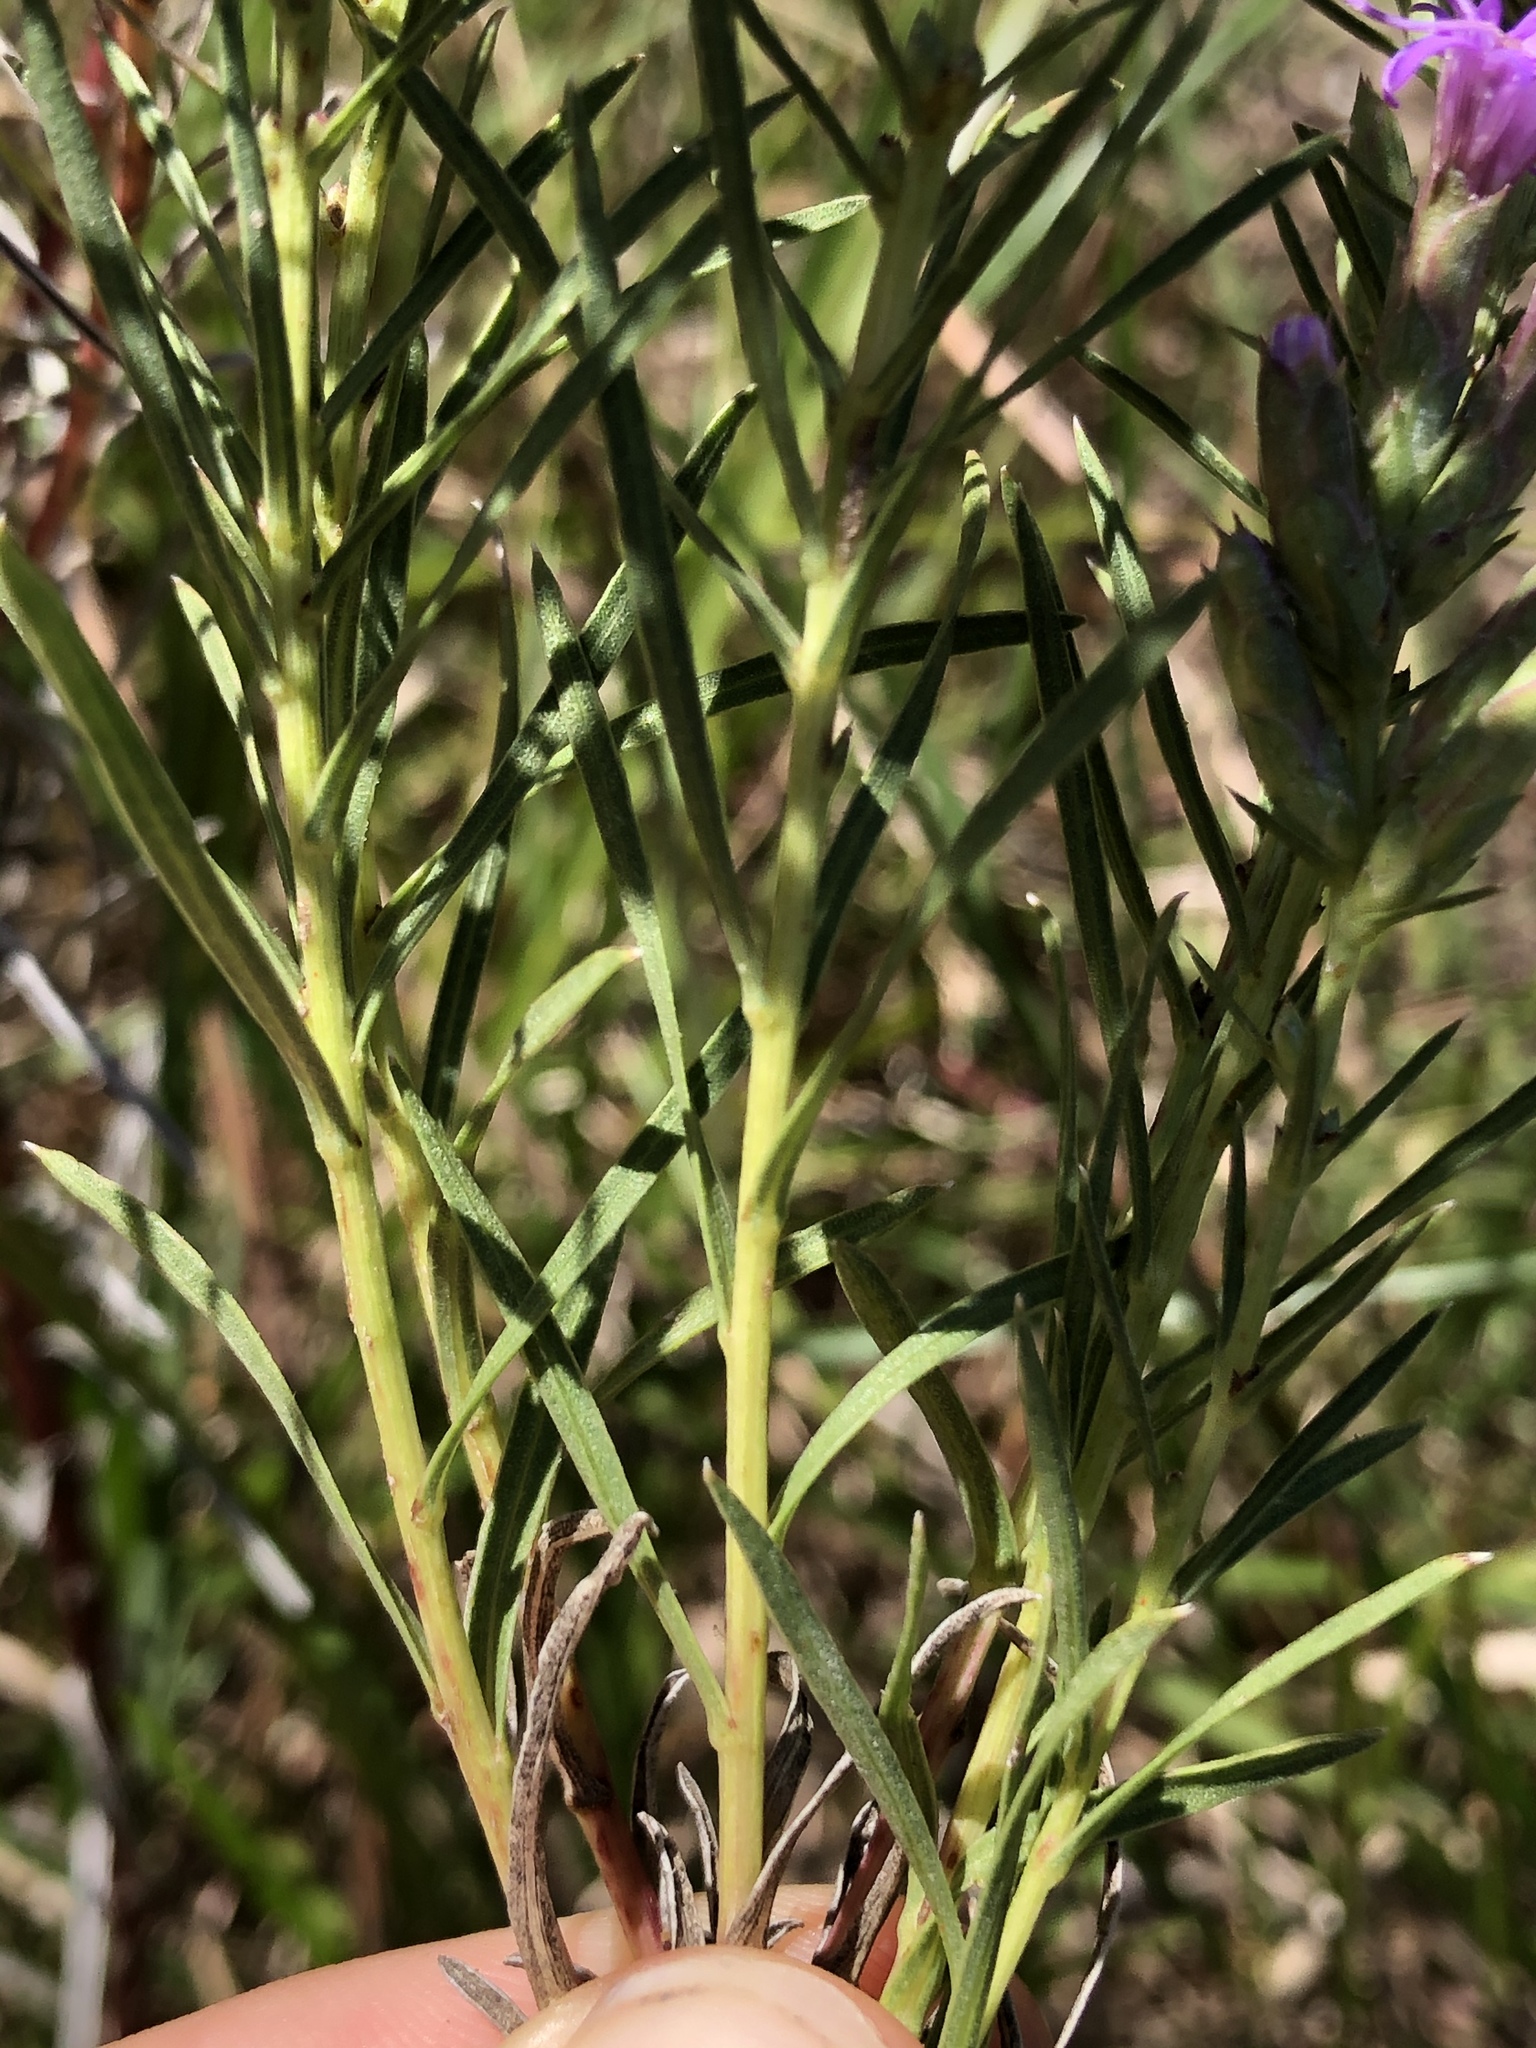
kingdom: Plantae
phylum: Tracheophyta
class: Magnoliopsida
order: Asterales
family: Asteraceae
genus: Liatris
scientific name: Liatris punctata
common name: Dotted gayfeather
